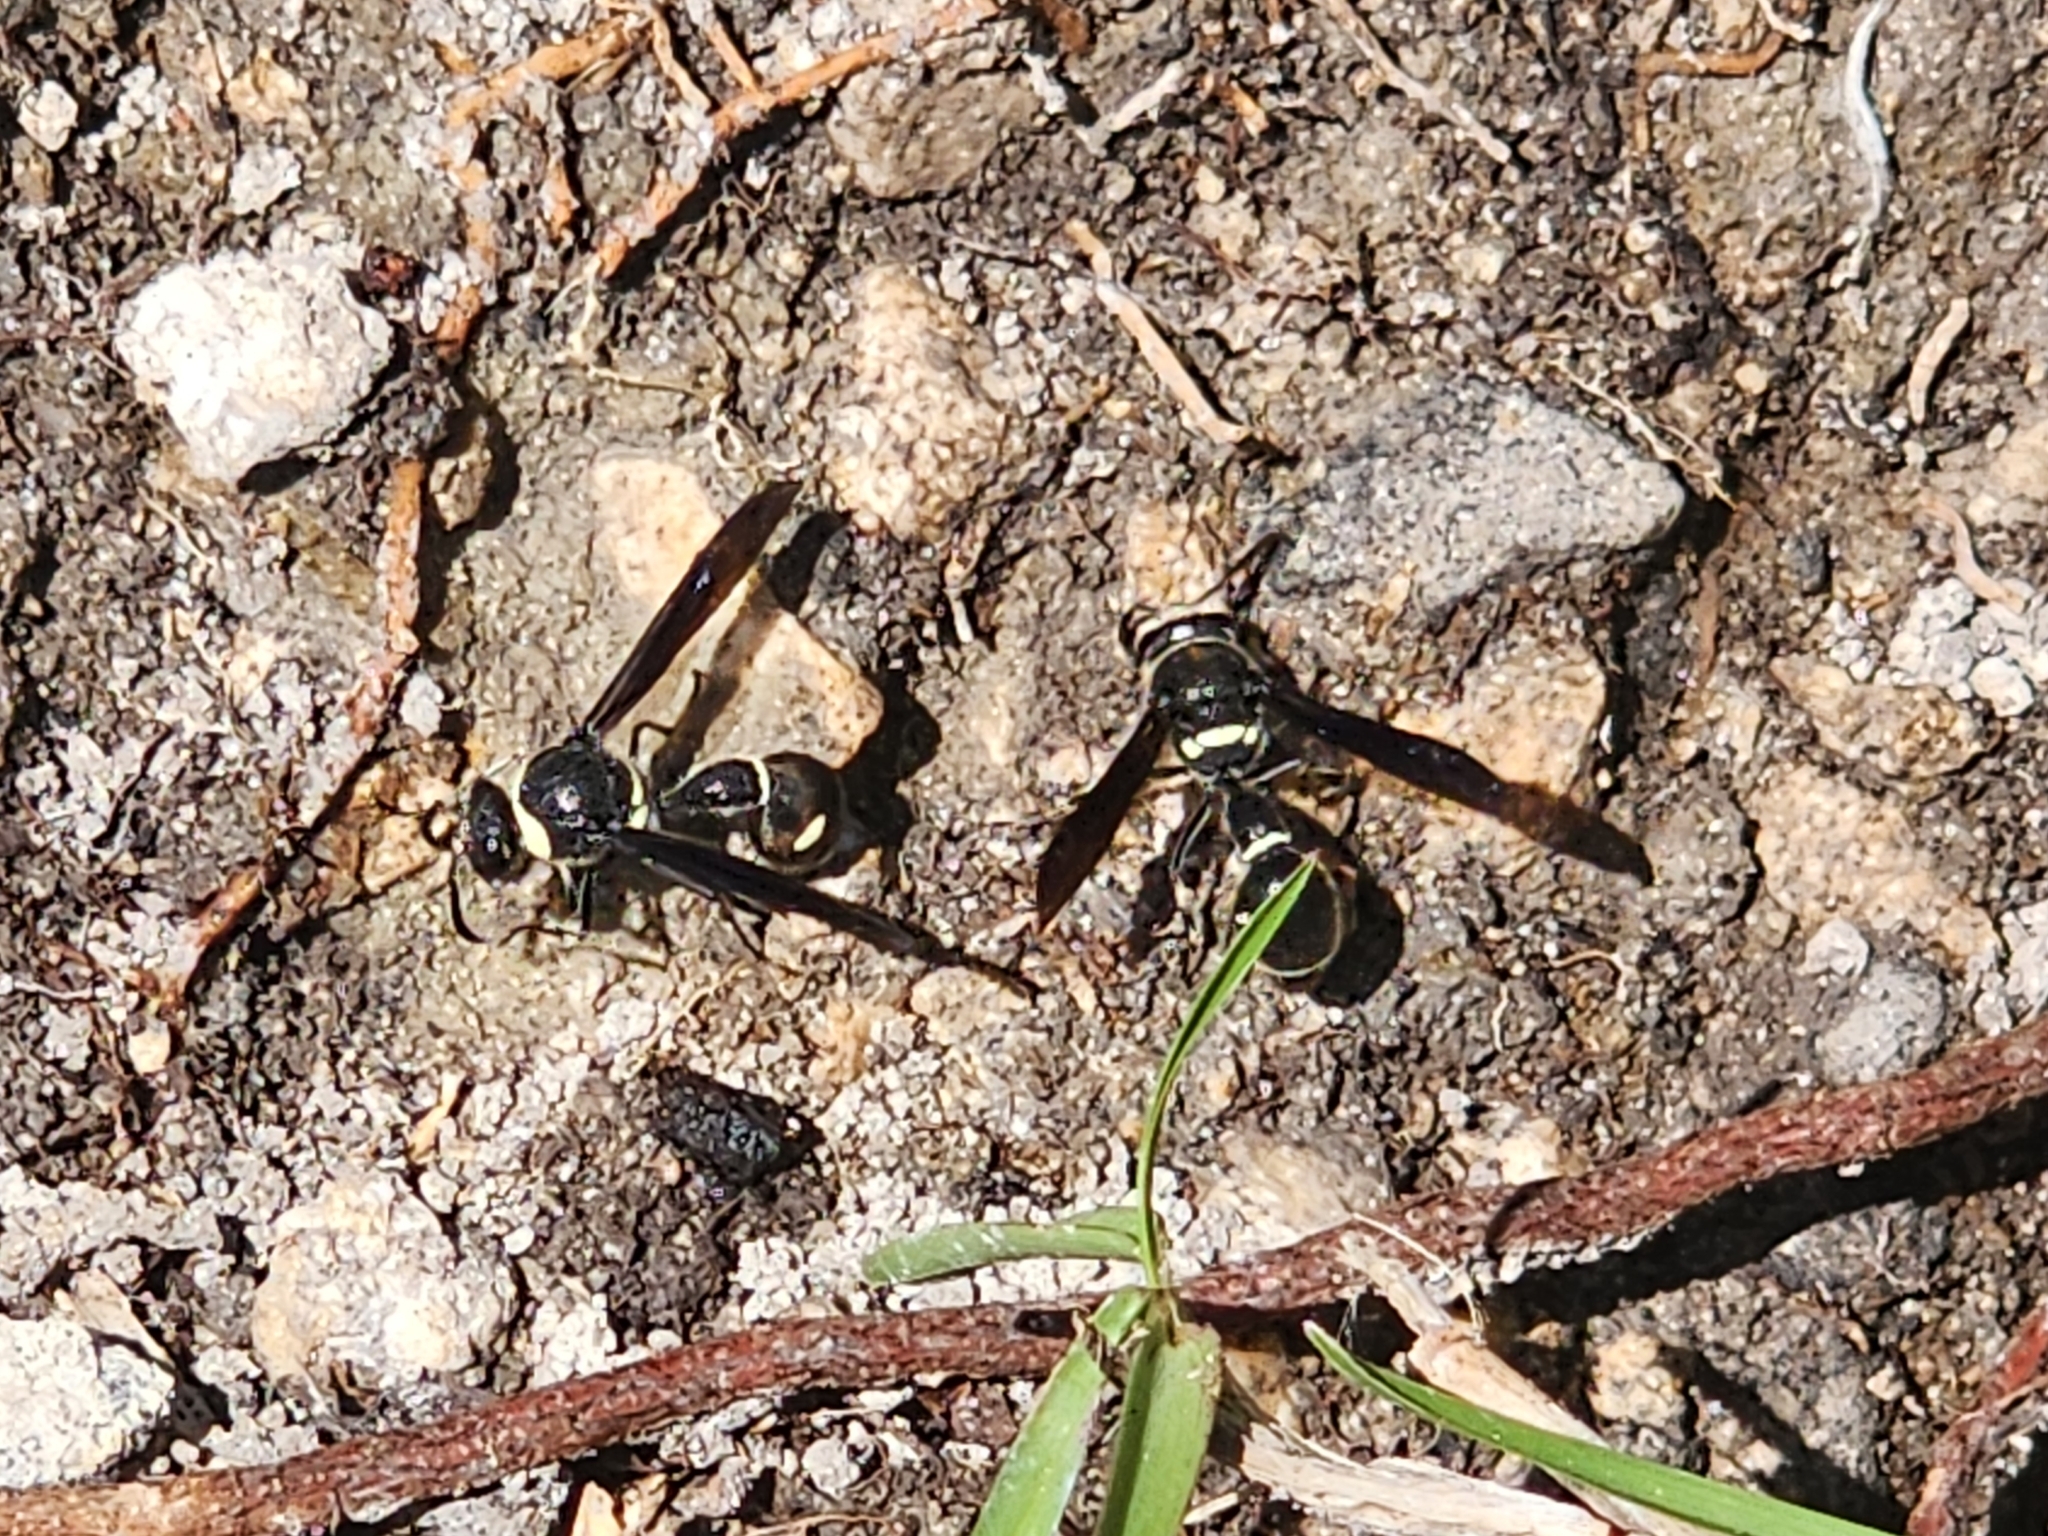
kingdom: Animalia
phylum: Arthropoda
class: Insecta
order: Hymenoptera
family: Vespidae
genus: Eumenes
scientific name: Eumenes fraternus
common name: Fraternal potter wasp
